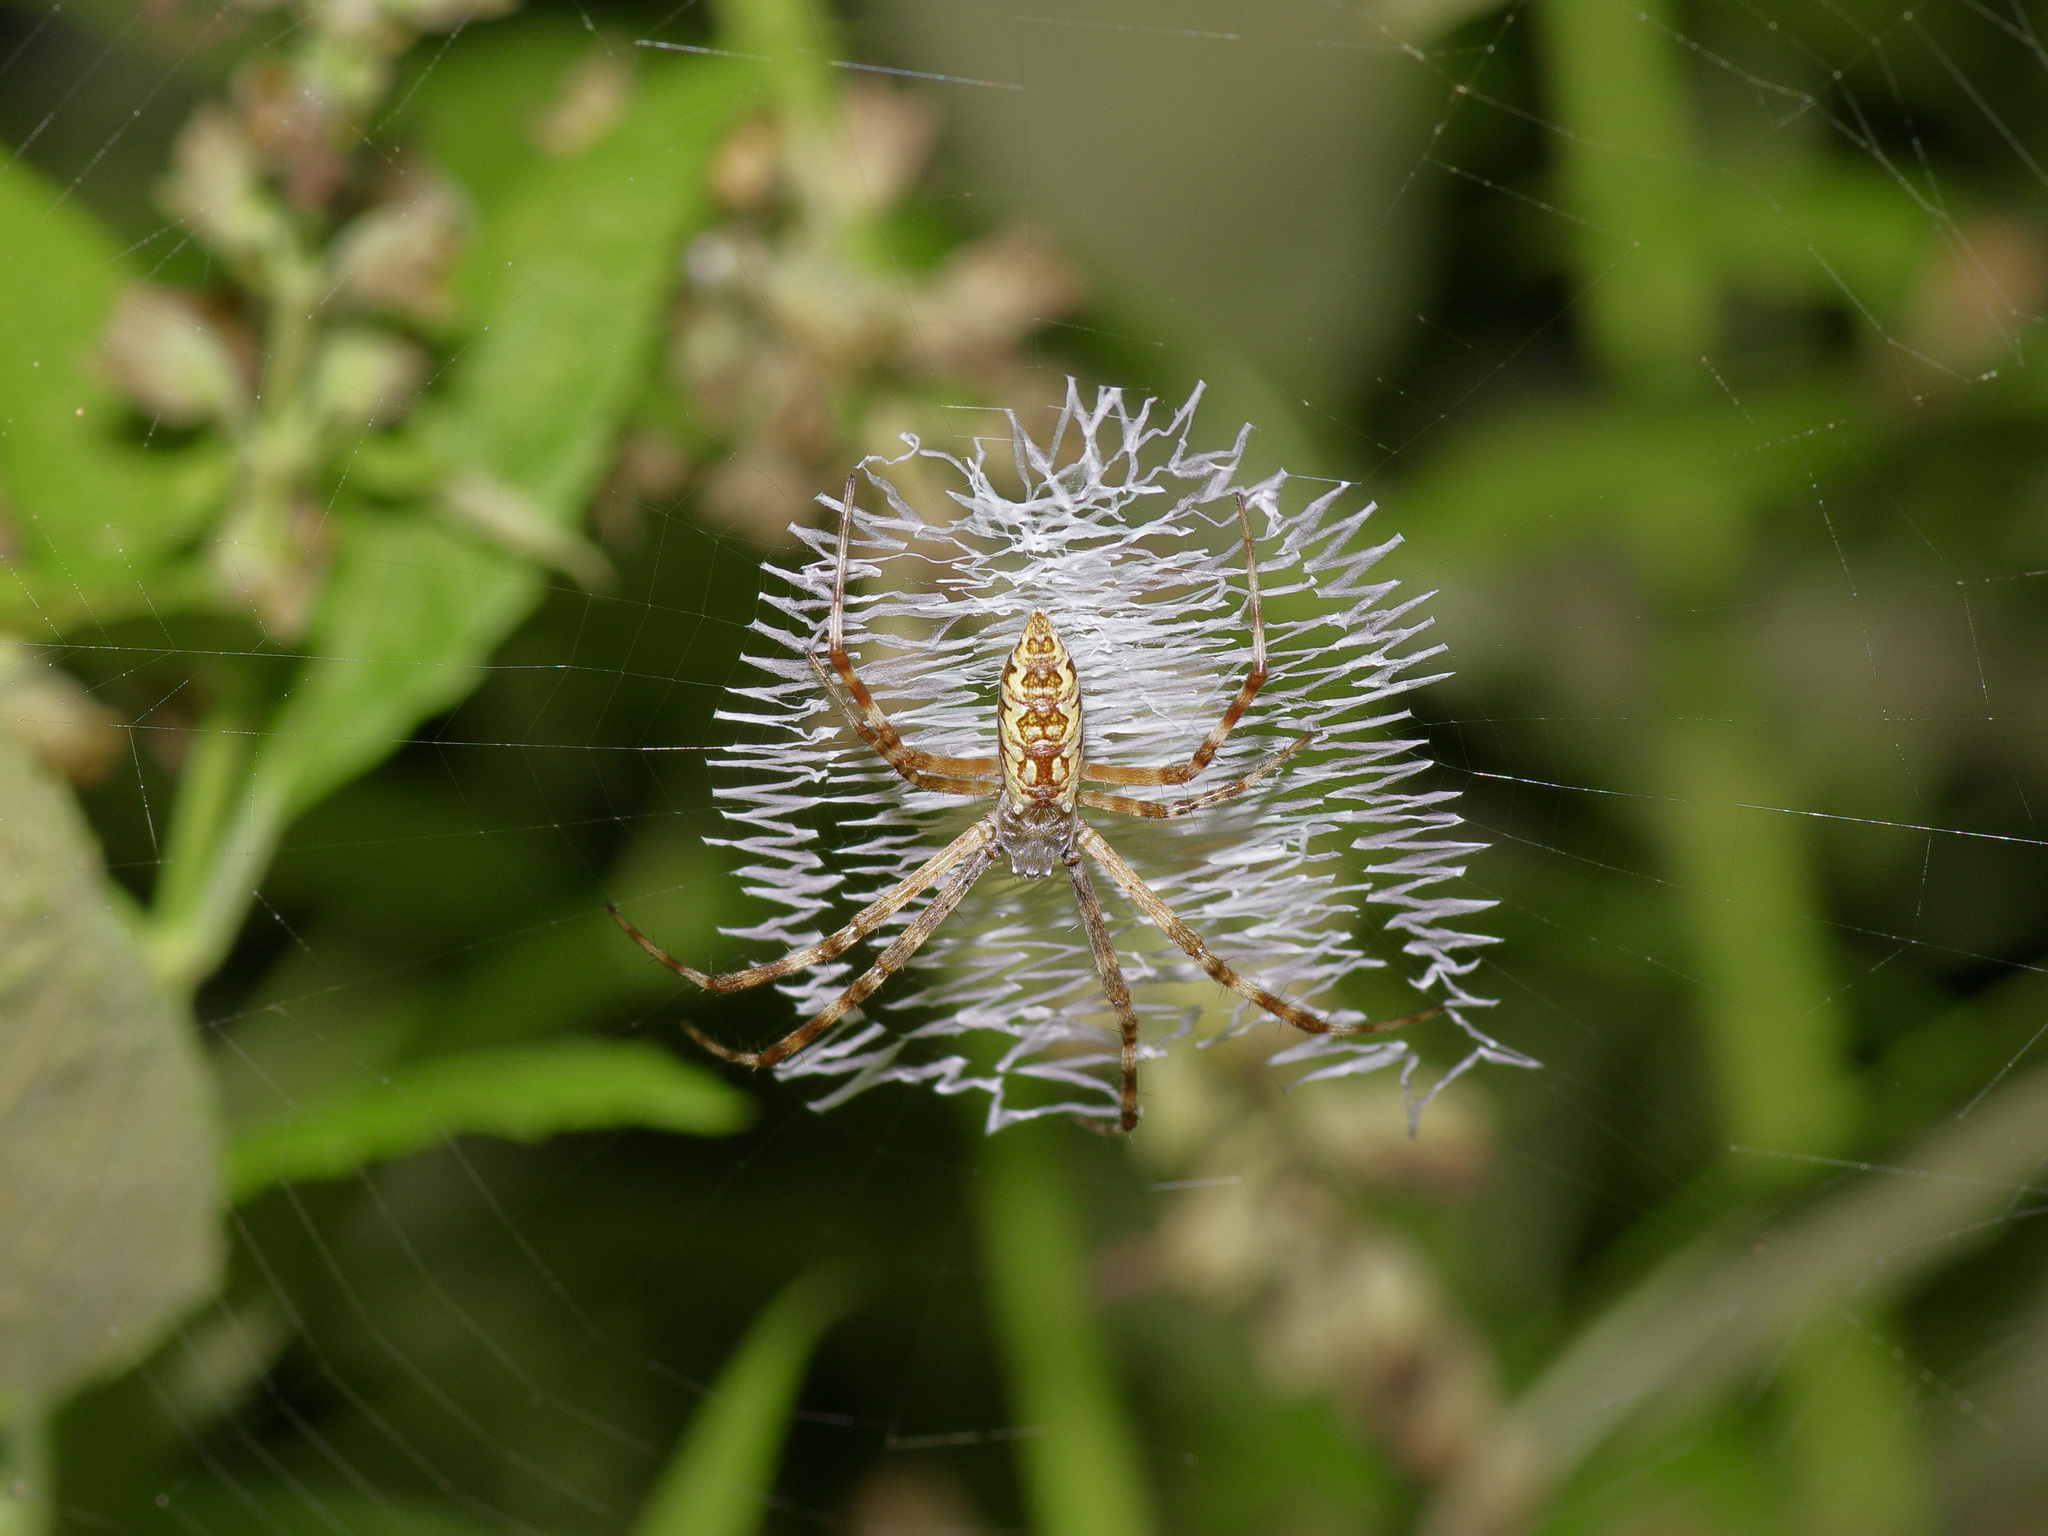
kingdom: Animalia
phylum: Arthropoda
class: Arachnida
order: Araneae
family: Araneidae
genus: Argiope
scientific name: Argiope aurantia
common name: Orb weavers
